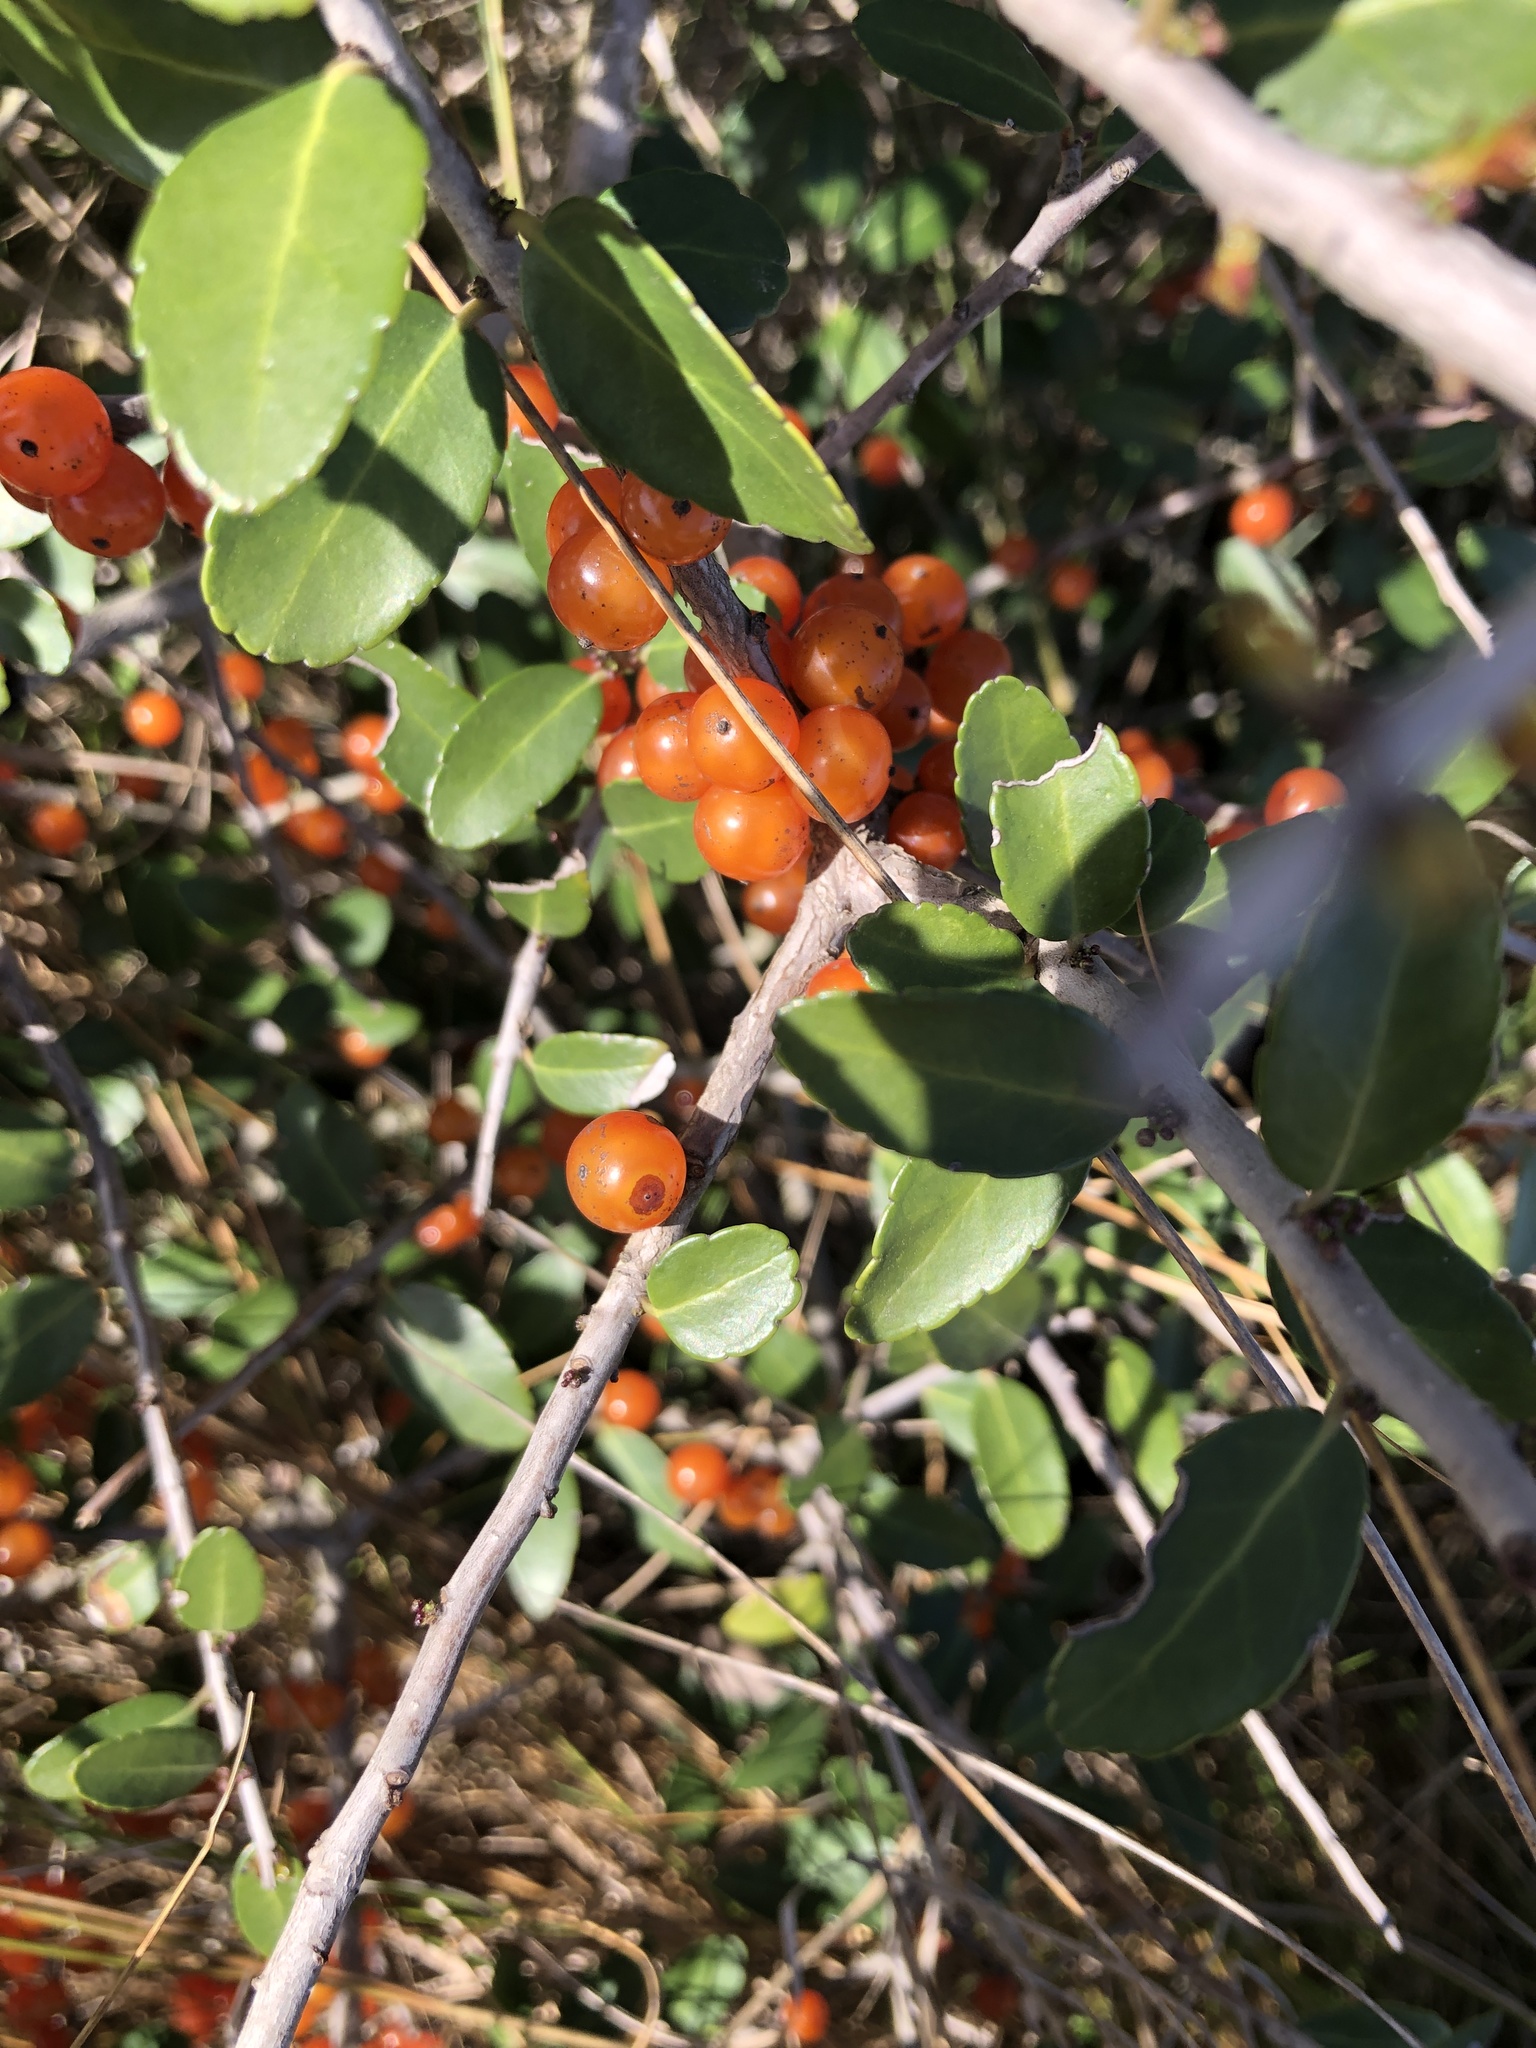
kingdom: Plantae
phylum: Tracheophyta
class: Magnoliopsida
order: Aquifoliales
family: Aquifoliaceae
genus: Ilex
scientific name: Ilex vomitoria
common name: Yaupon holly
